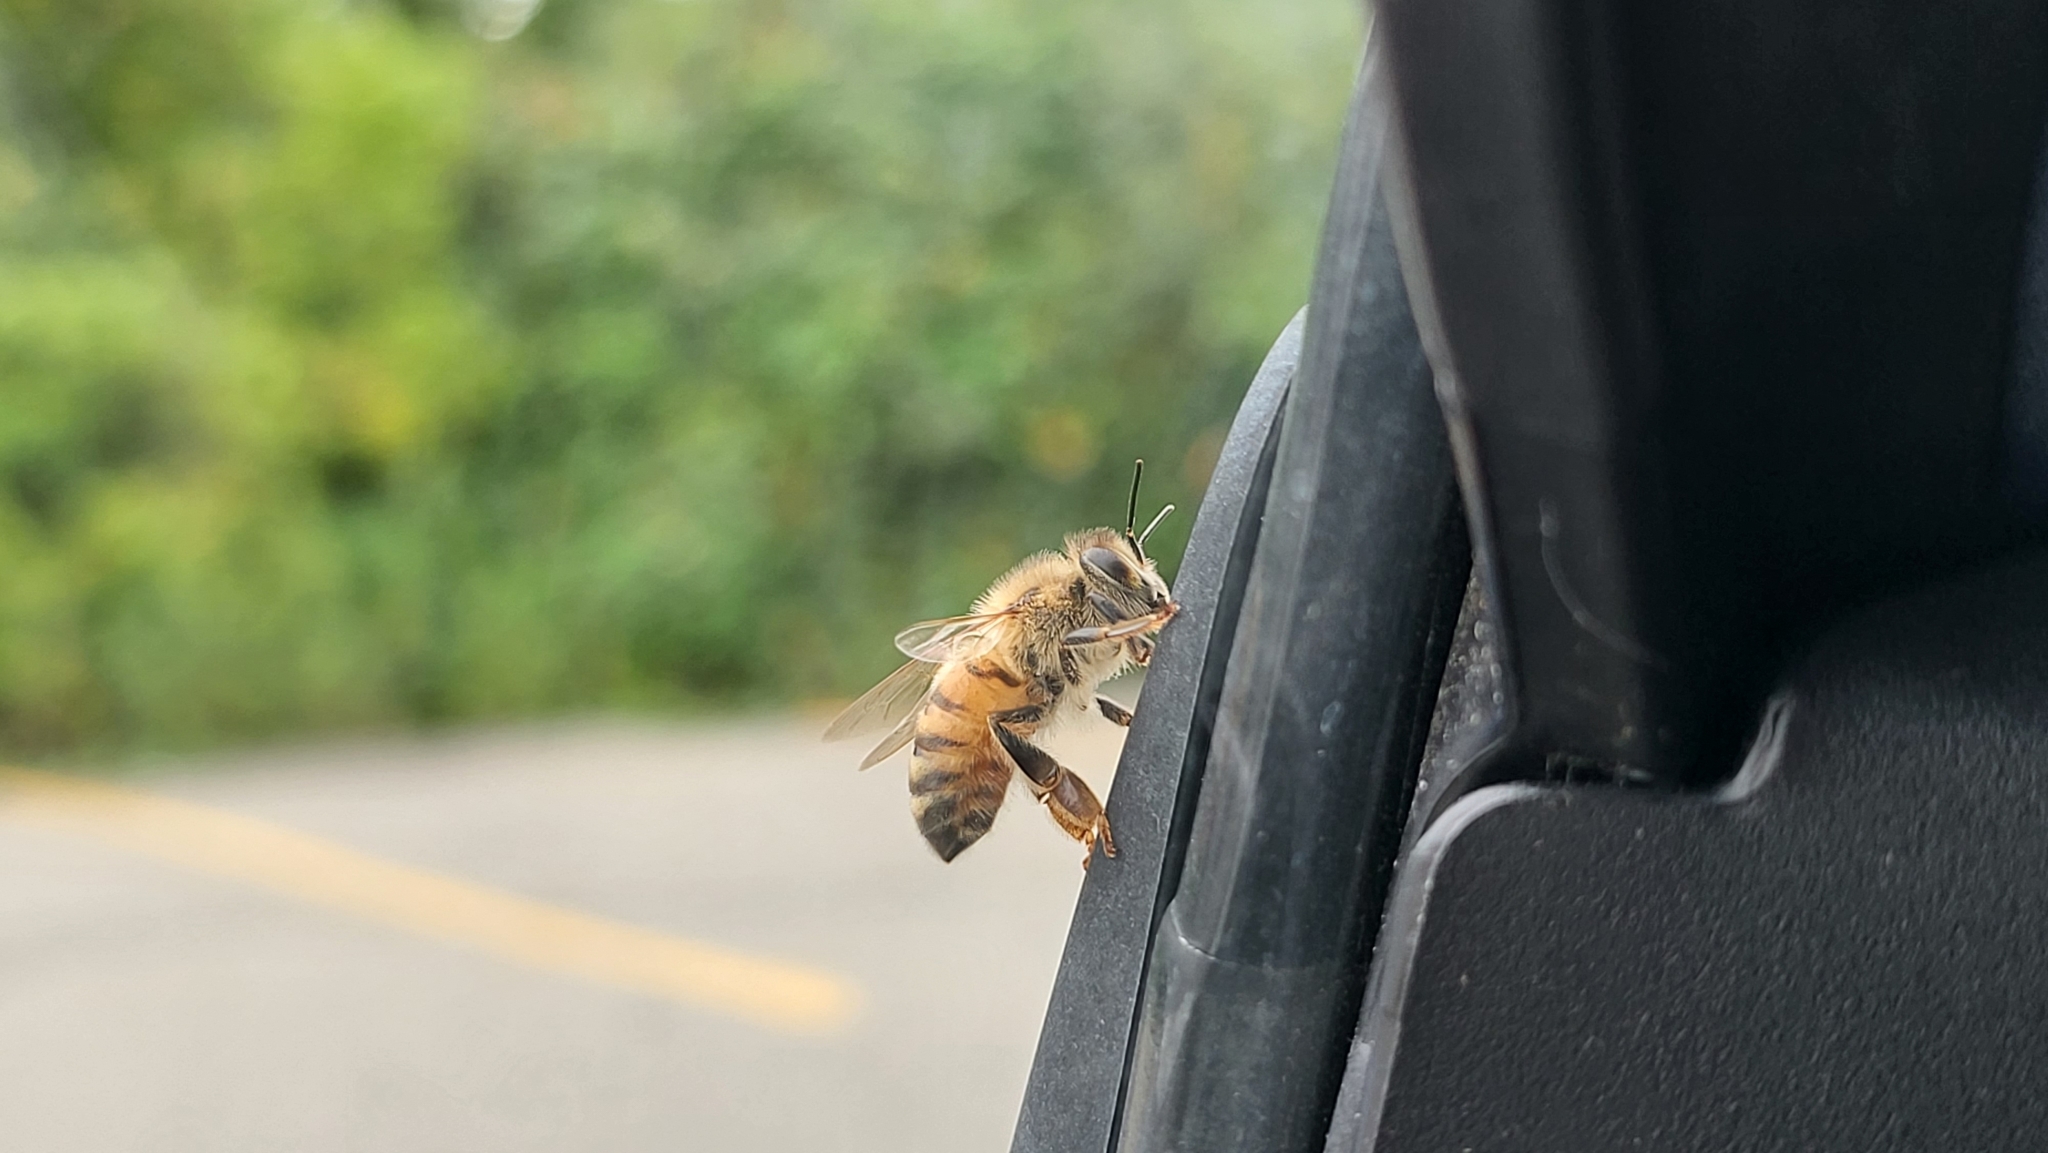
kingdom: Animalia
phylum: Arthropoda
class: Insecta
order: Hymenoptera
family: Apidae
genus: Apis
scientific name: Apis mellifera
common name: Honey bee
